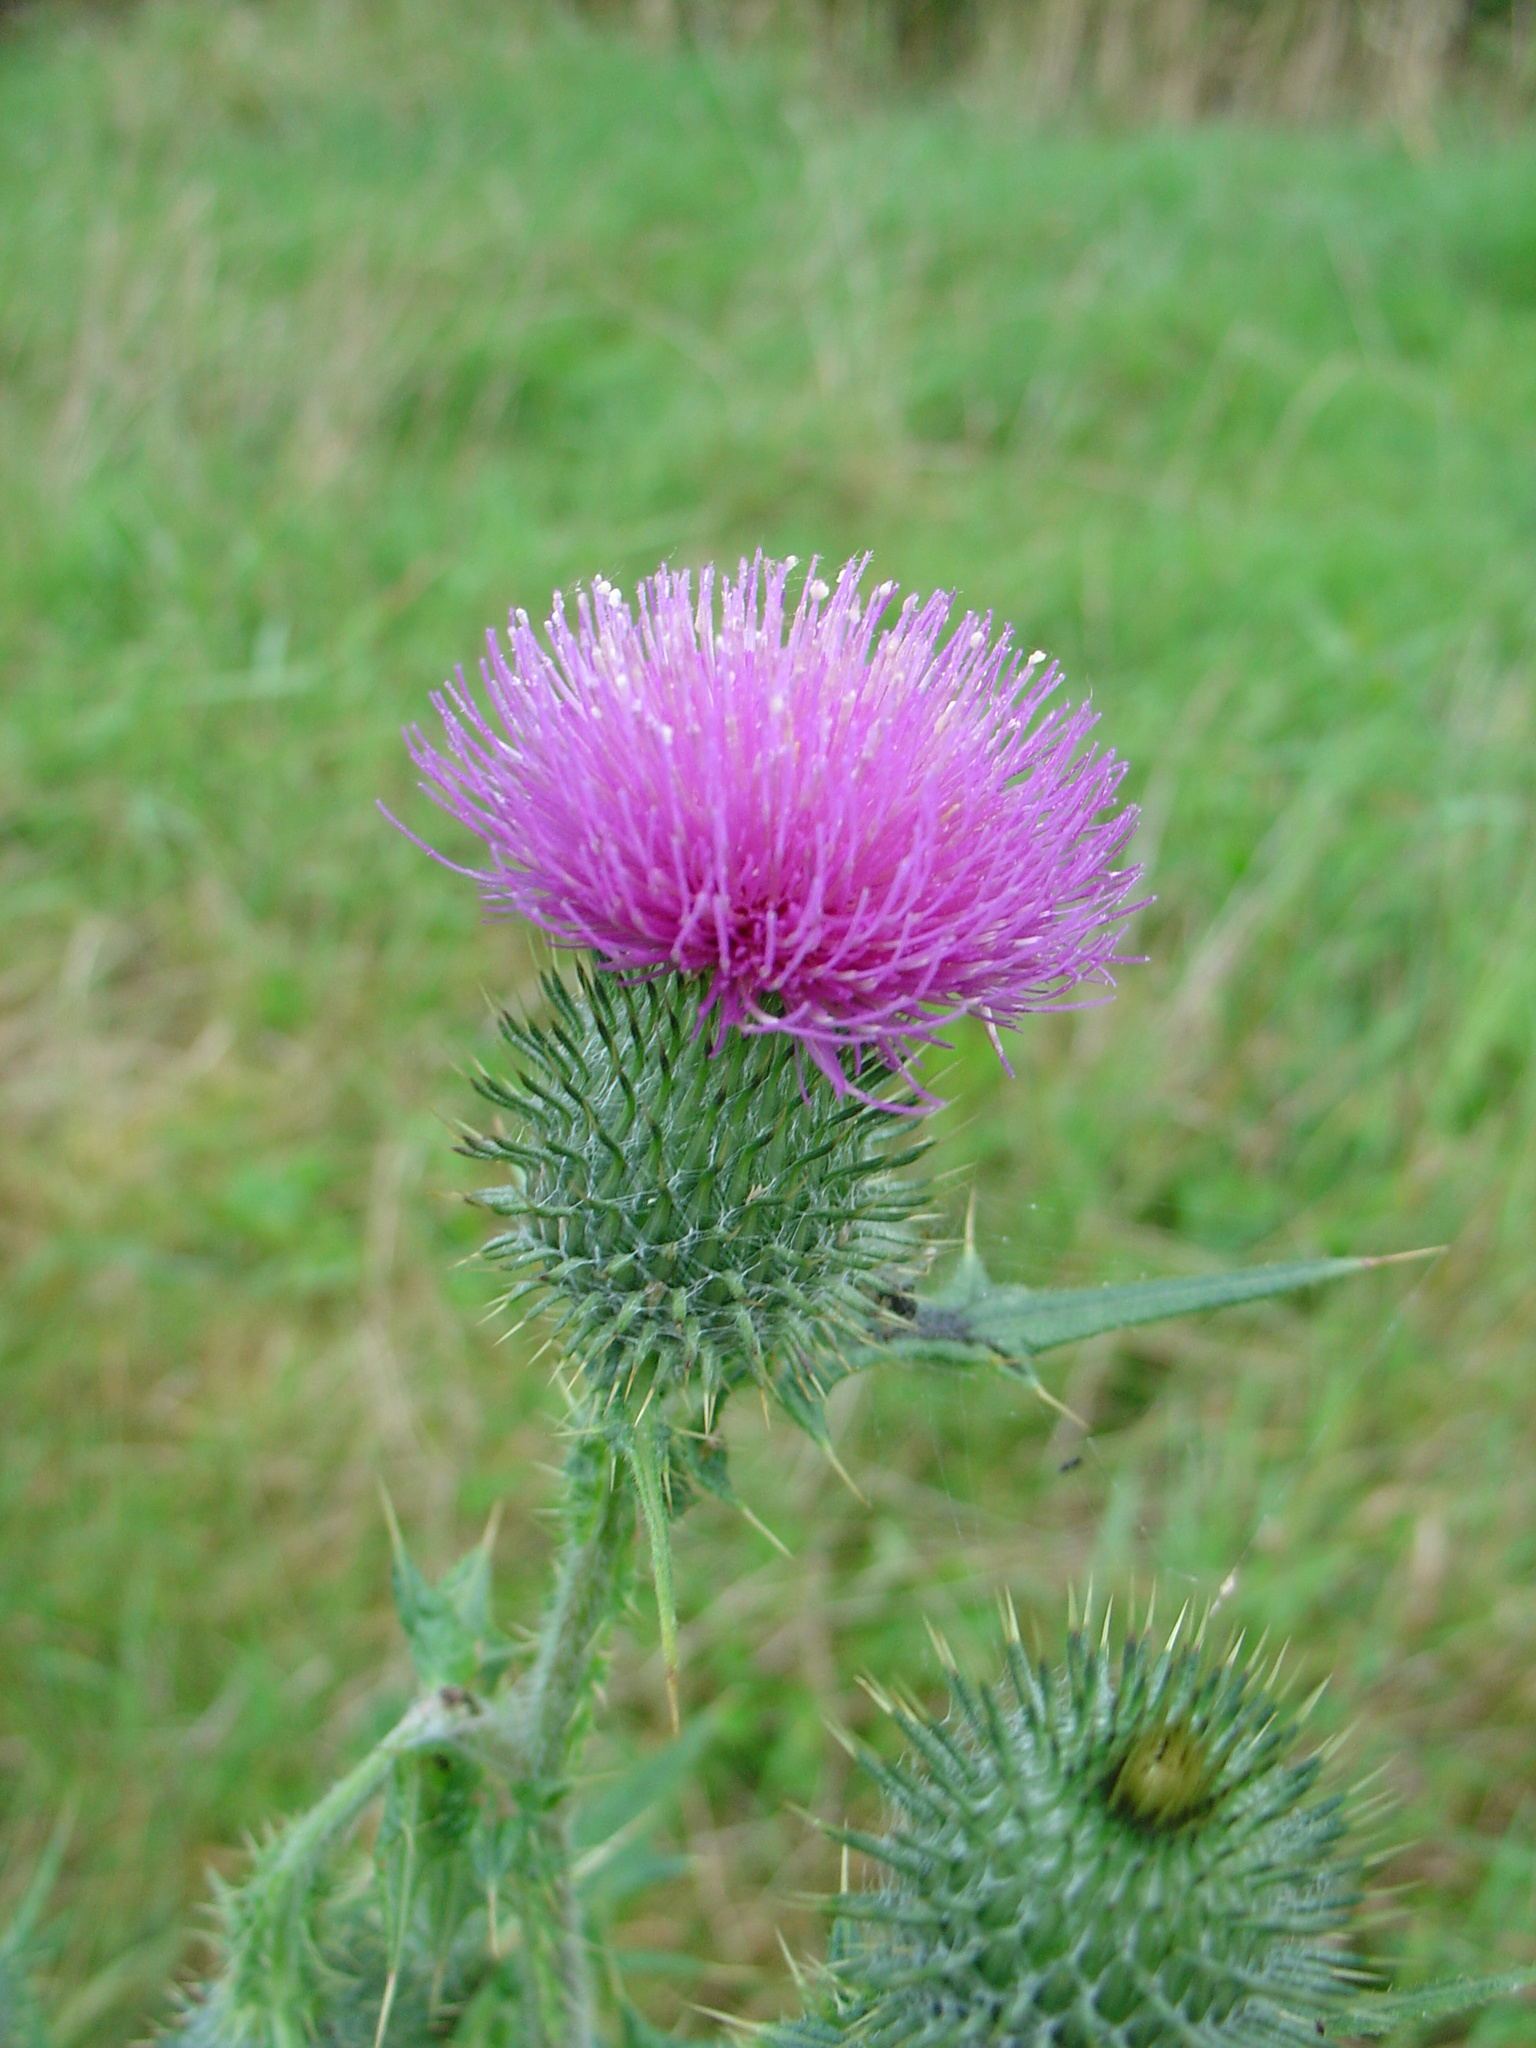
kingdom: Plantae
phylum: Tracheophyta
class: Magnoliopsida
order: Asterales
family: Asteraceae
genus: Cirsium
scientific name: Cirsium vulgare
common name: Bull thistle
